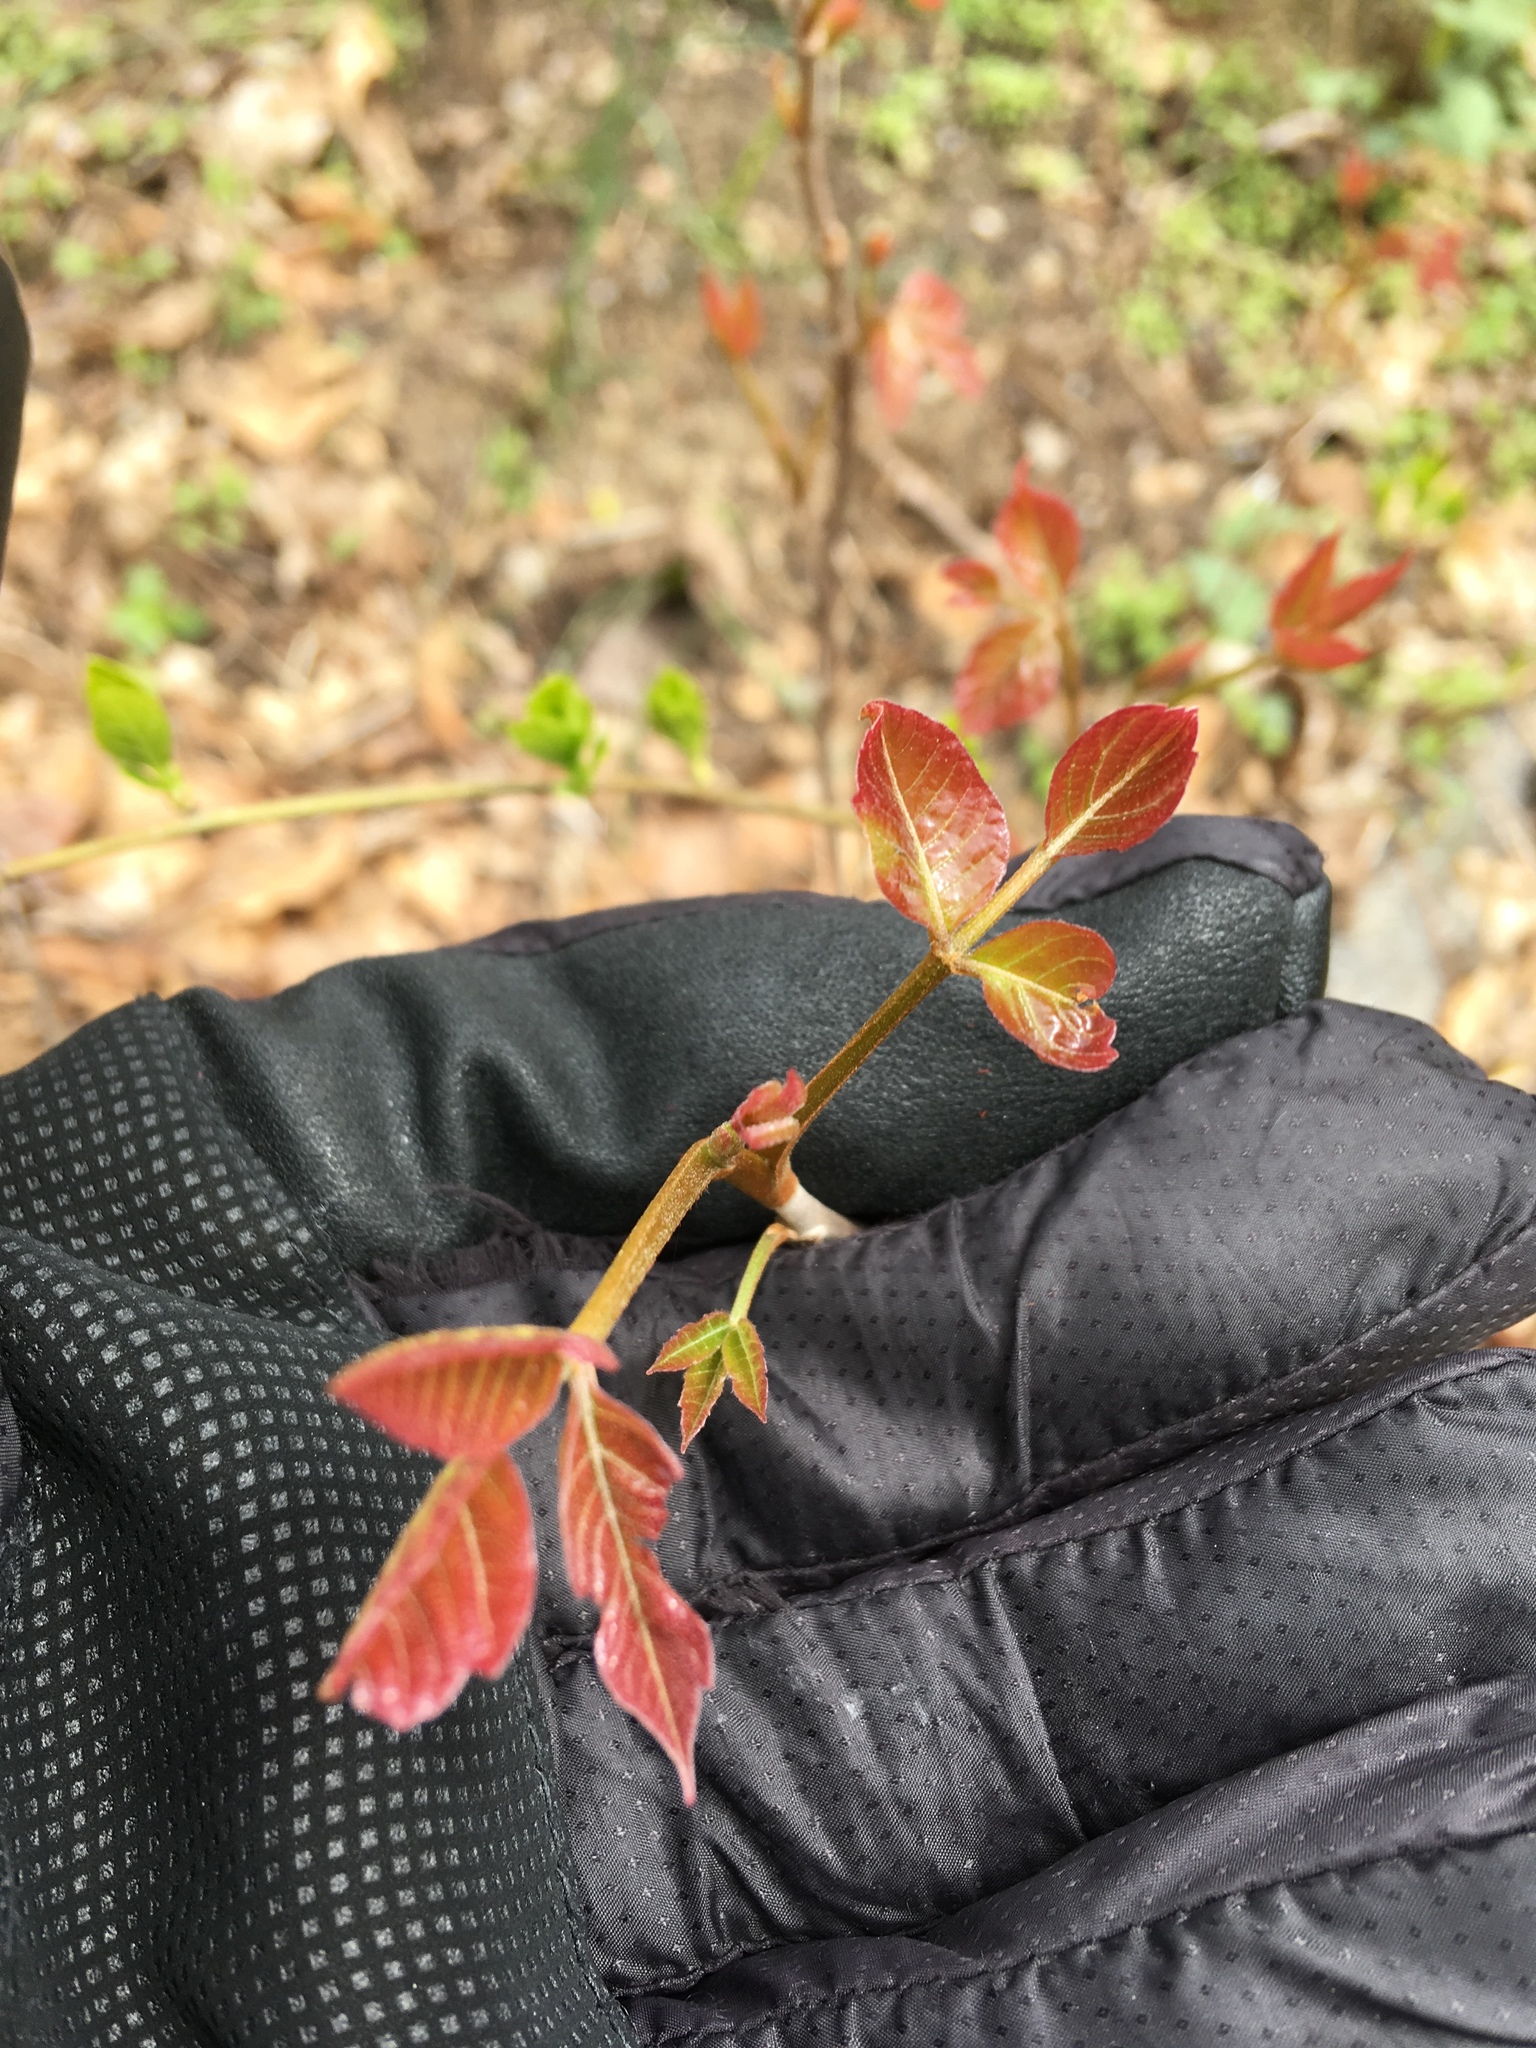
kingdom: Plantae
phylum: Tracheophyta
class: Magnoliopsida
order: Sapindales
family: Anacardiaceae
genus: Toxicodendron
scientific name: Toxicodendron radicans
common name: Poison ivy
